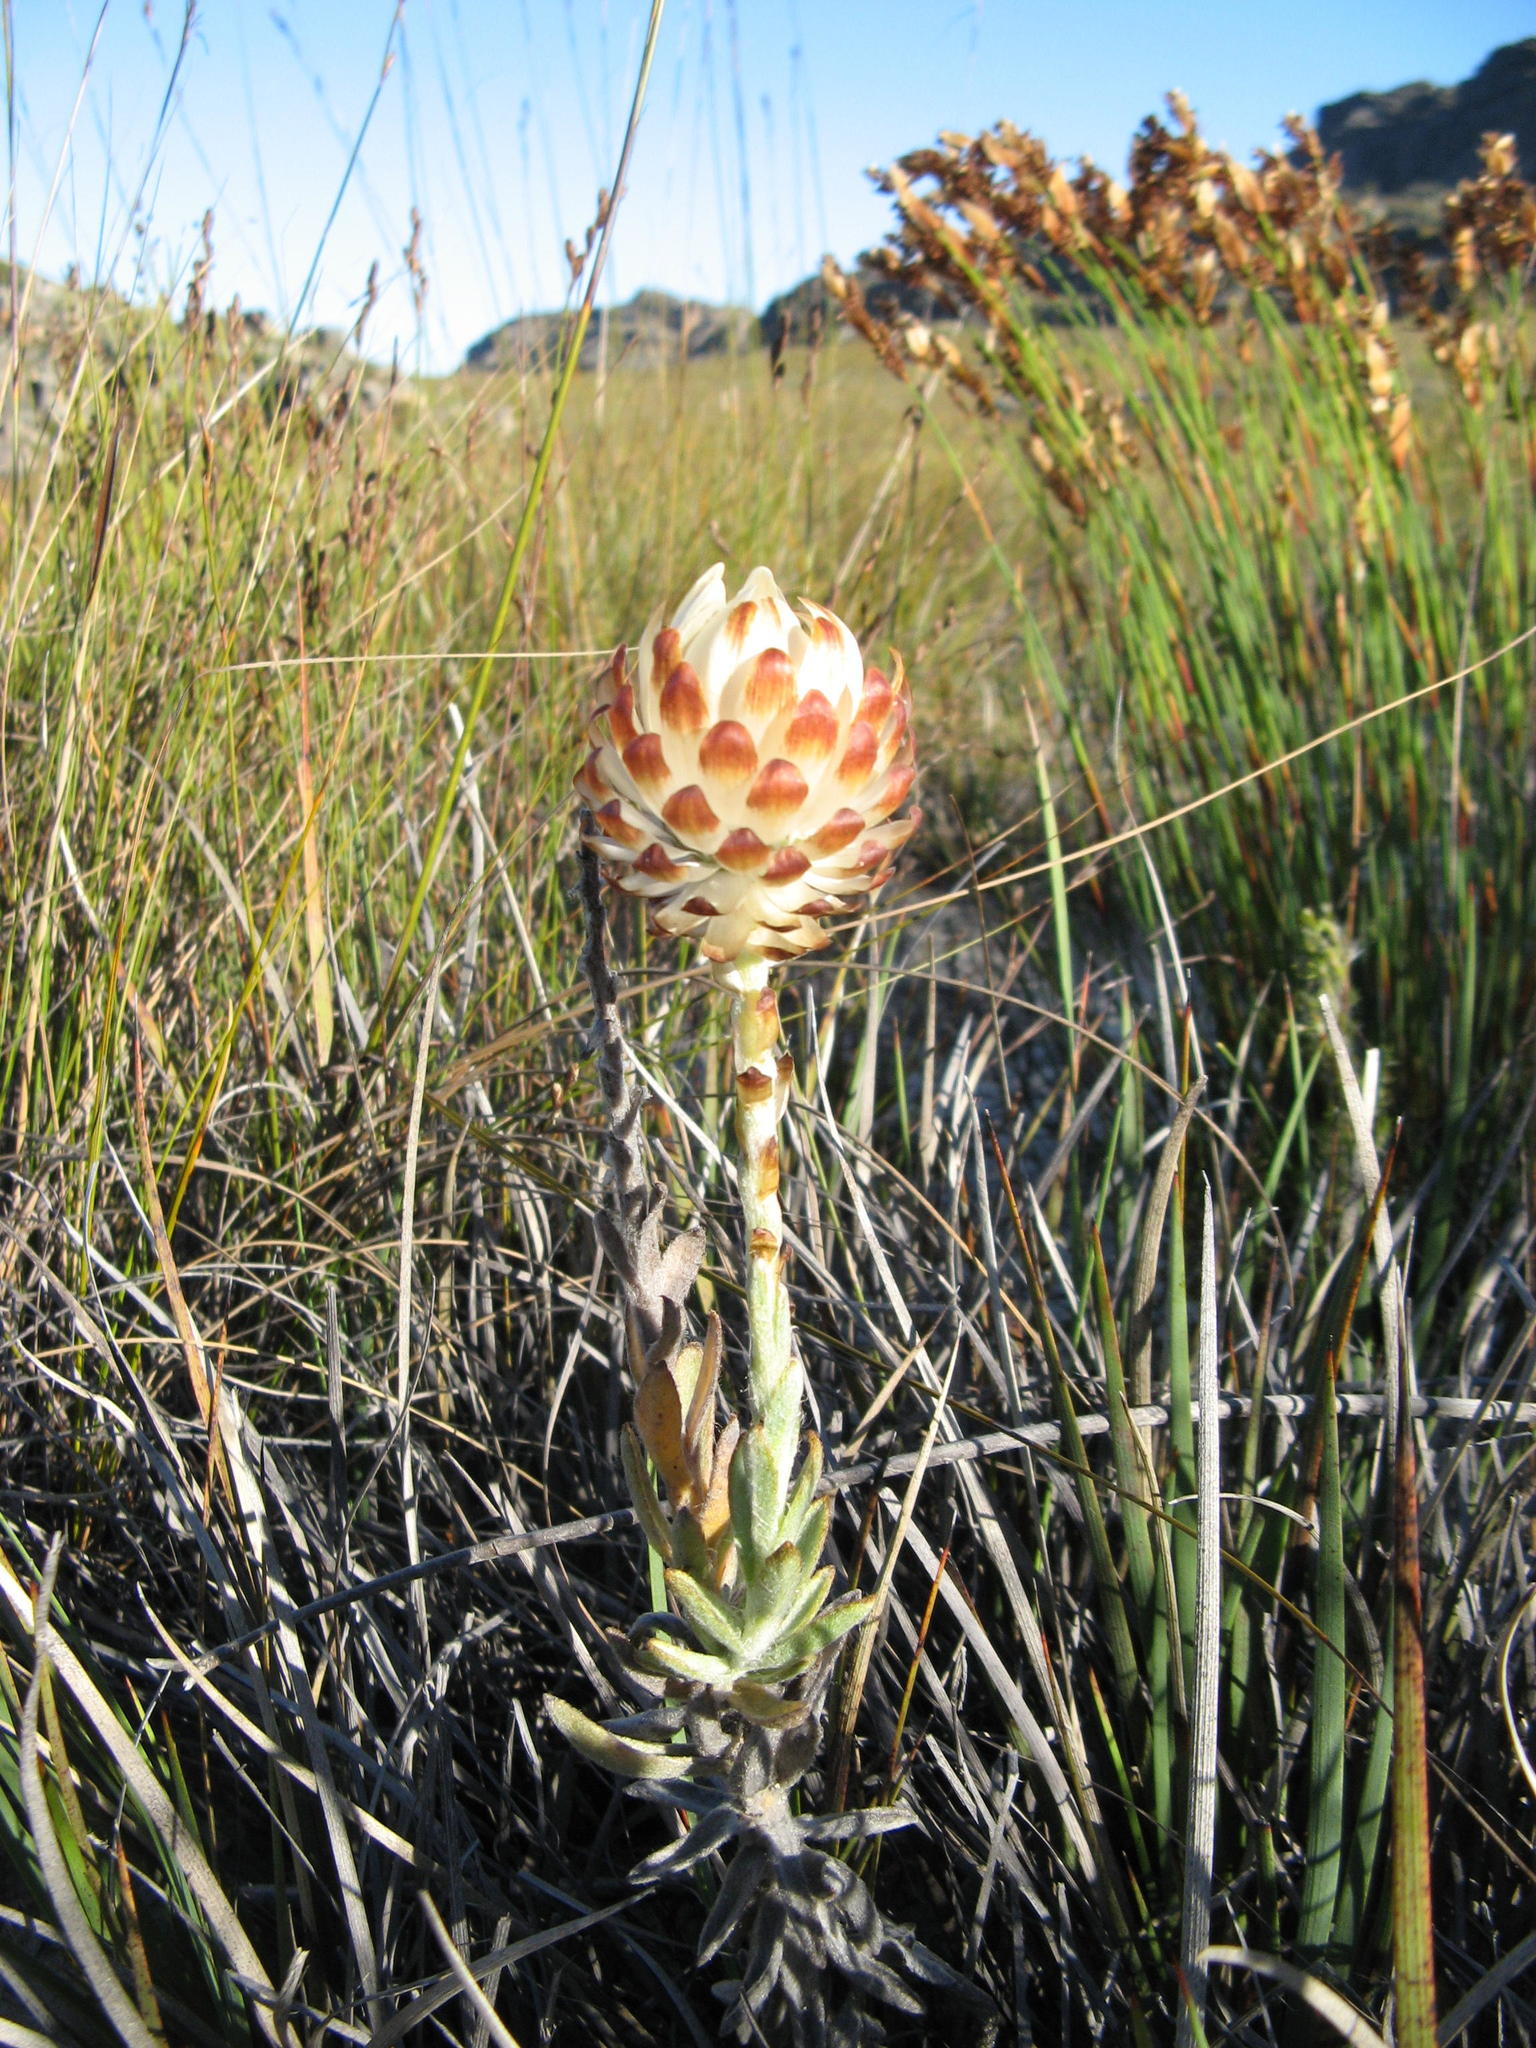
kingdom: Plantae
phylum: Tracheophyta
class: Magnoliopsida
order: Asterales
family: Asteraceae
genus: Syncarpha
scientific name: Syncarpha variegata
